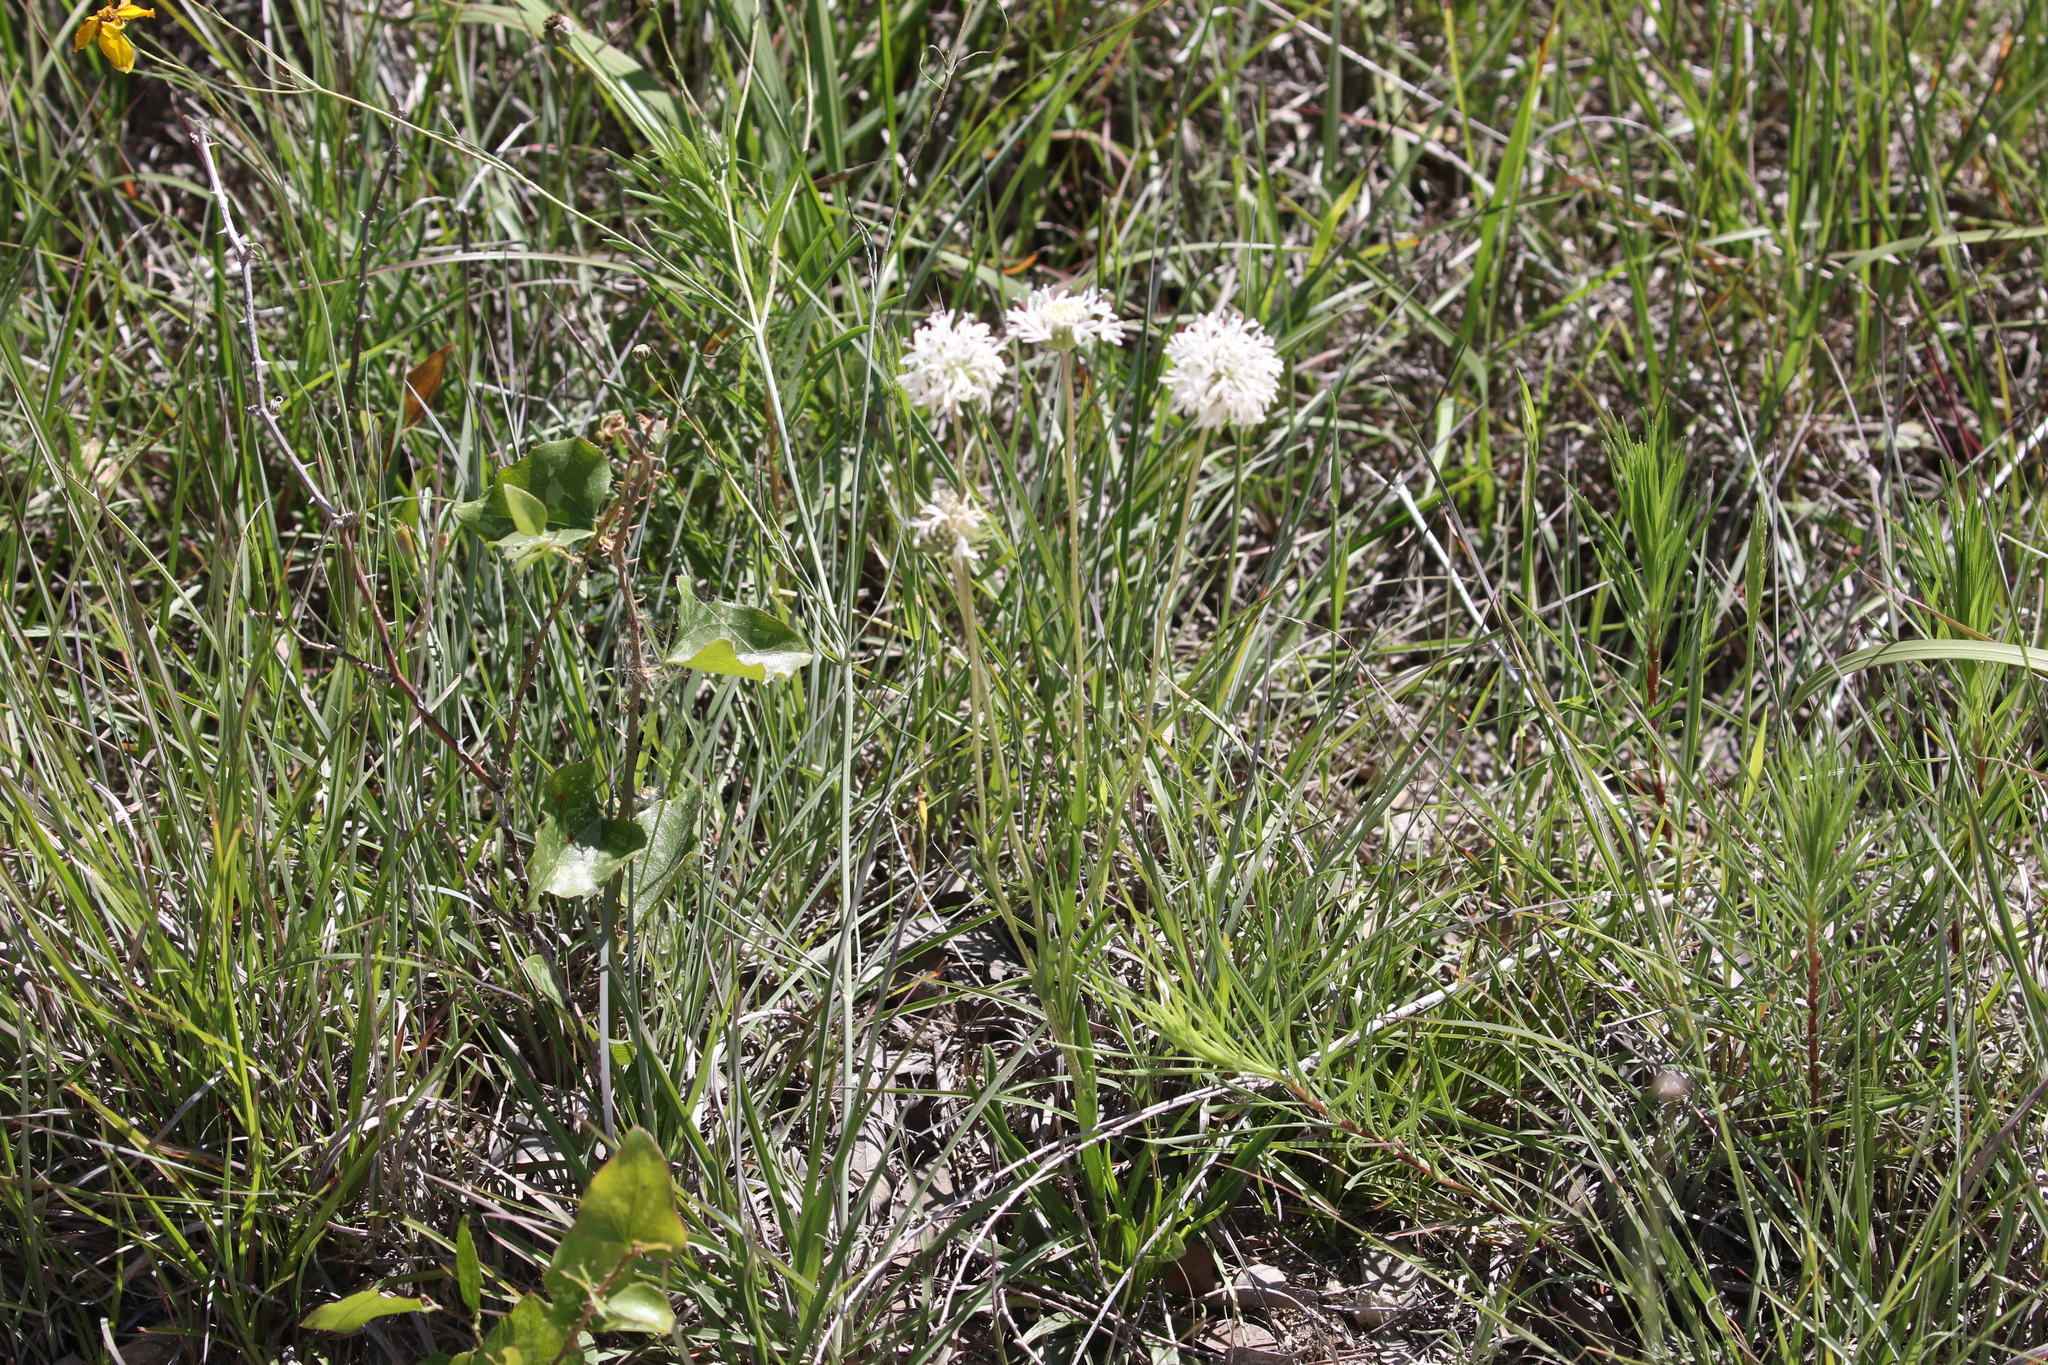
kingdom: Plantae
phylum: Tracheophyta
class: Magnoliopsida
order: Asterales
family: Asteraceae
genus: Marshallia
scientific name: Marshallia caespitosa
